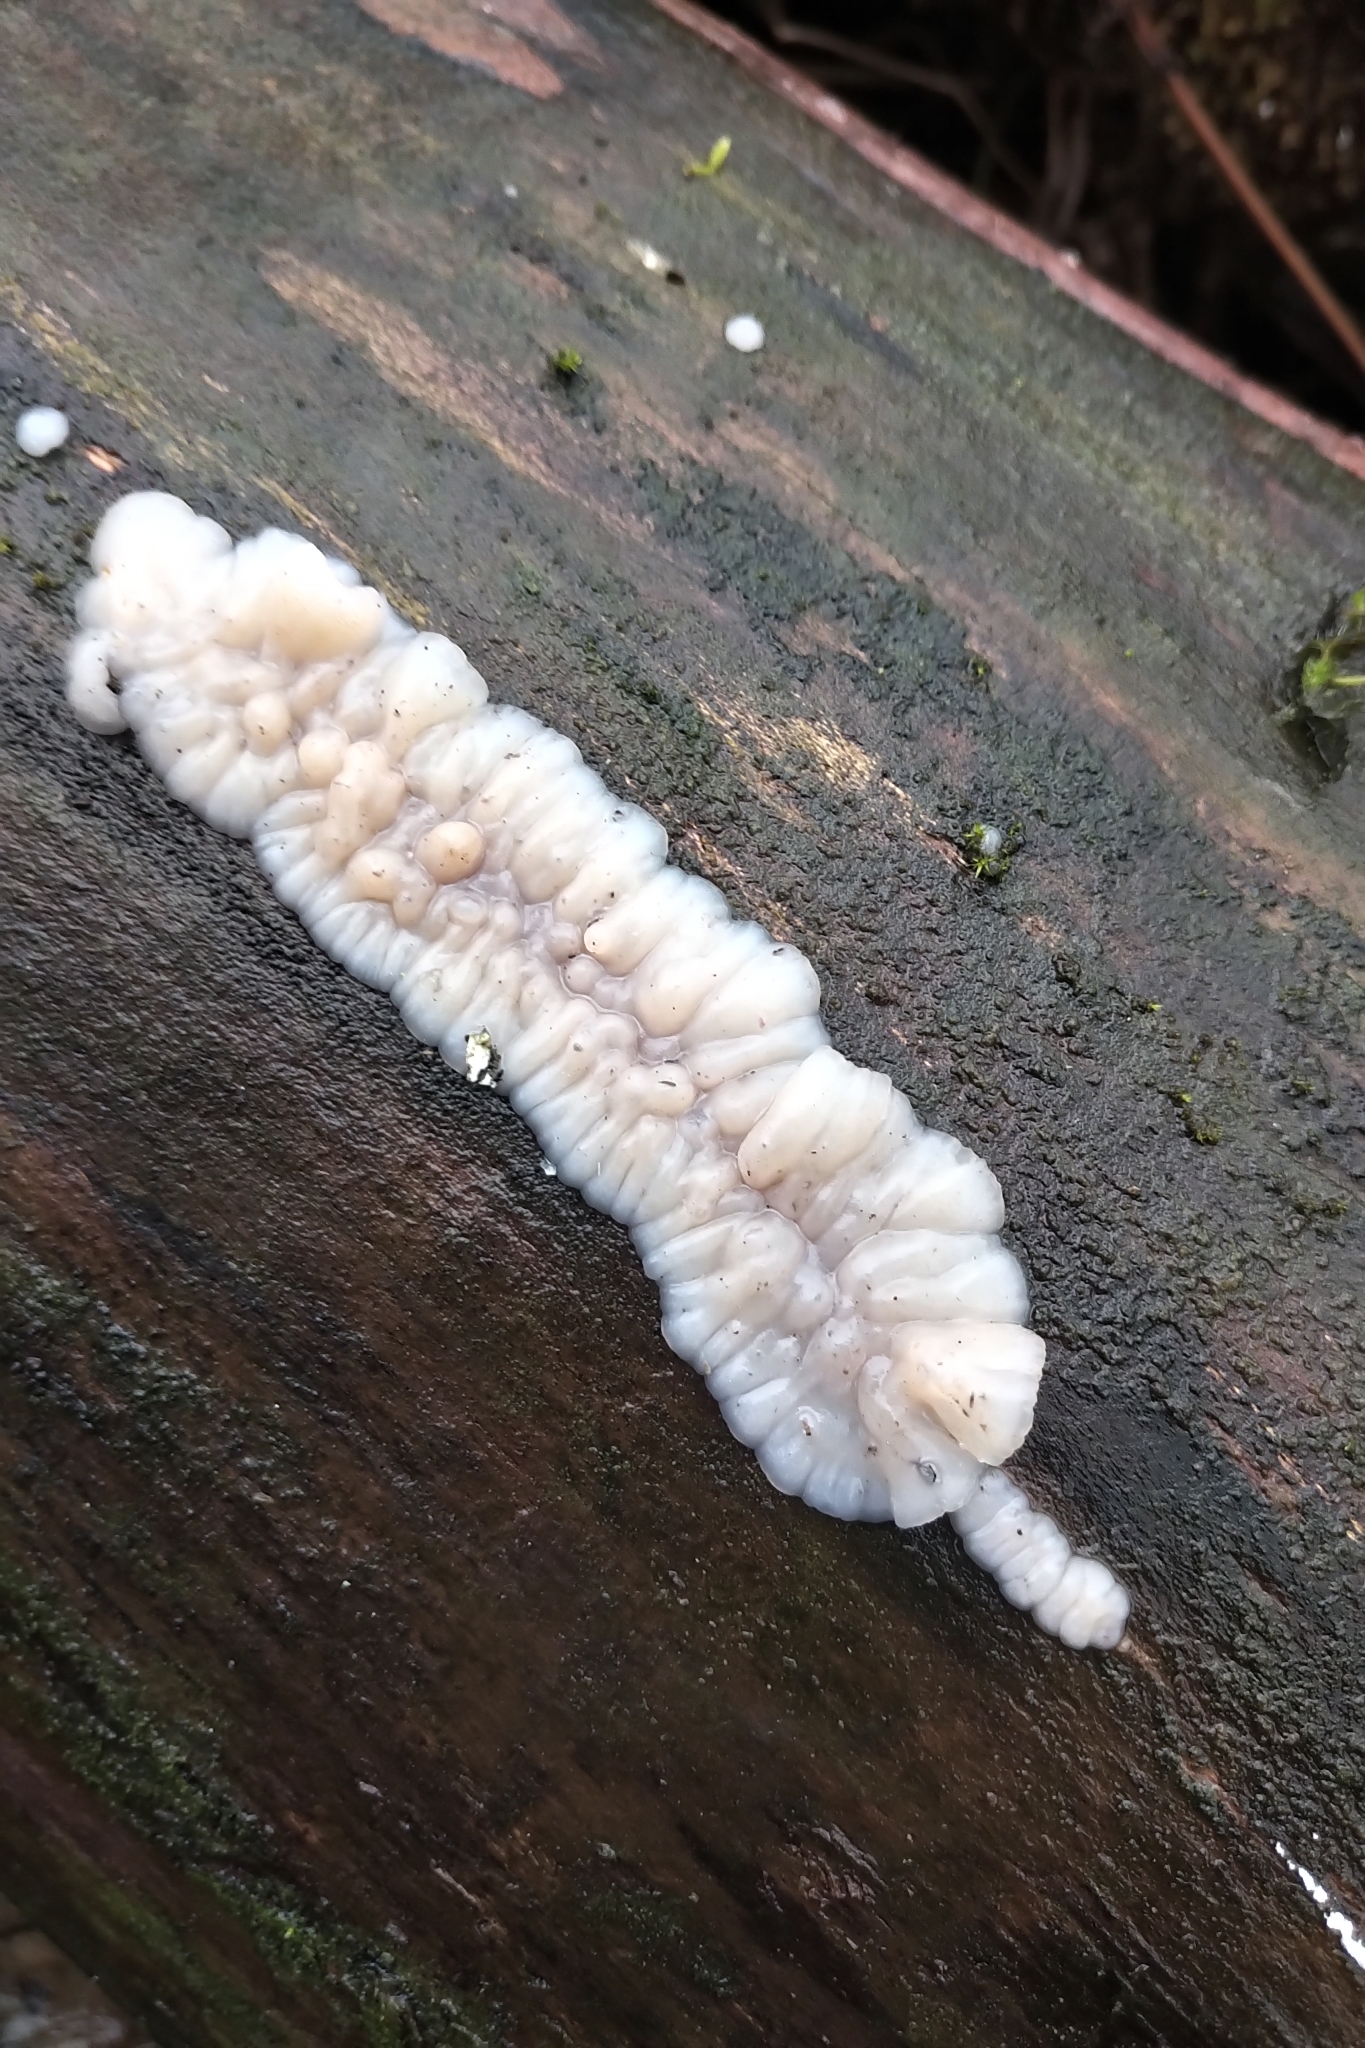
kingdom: Fungi
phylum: Basidiomycota
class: Agaricomycetes
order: Auriculariales
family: Auriculariaceae
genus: Exidia
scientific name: Exidia thuretiana
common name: White brain
